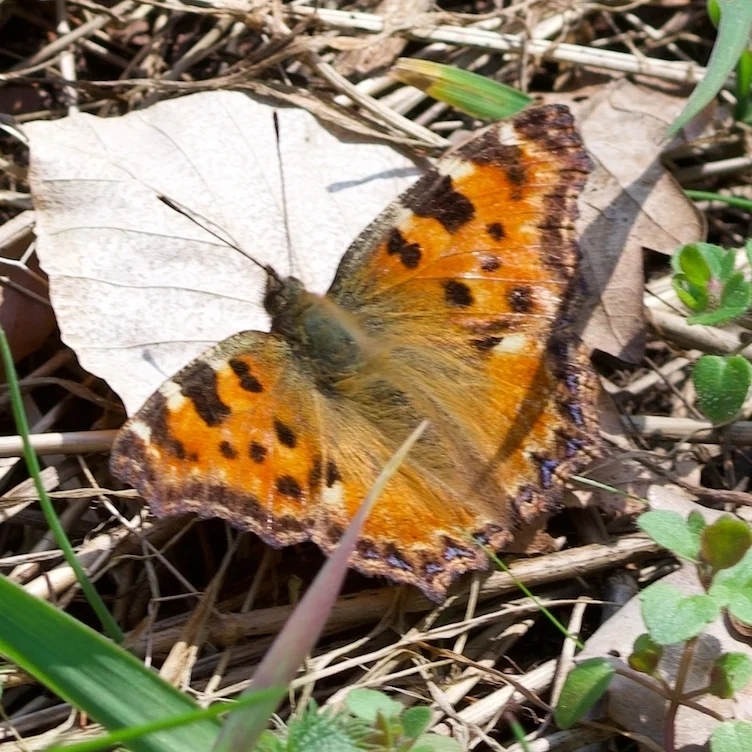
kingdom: Animalia
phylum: Arthropoda
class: Insecta
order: Lepidoptera
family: Nymphalidae
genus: Nymphalis
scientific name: Nymphalis polychloros
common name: Large tortoiseshell
